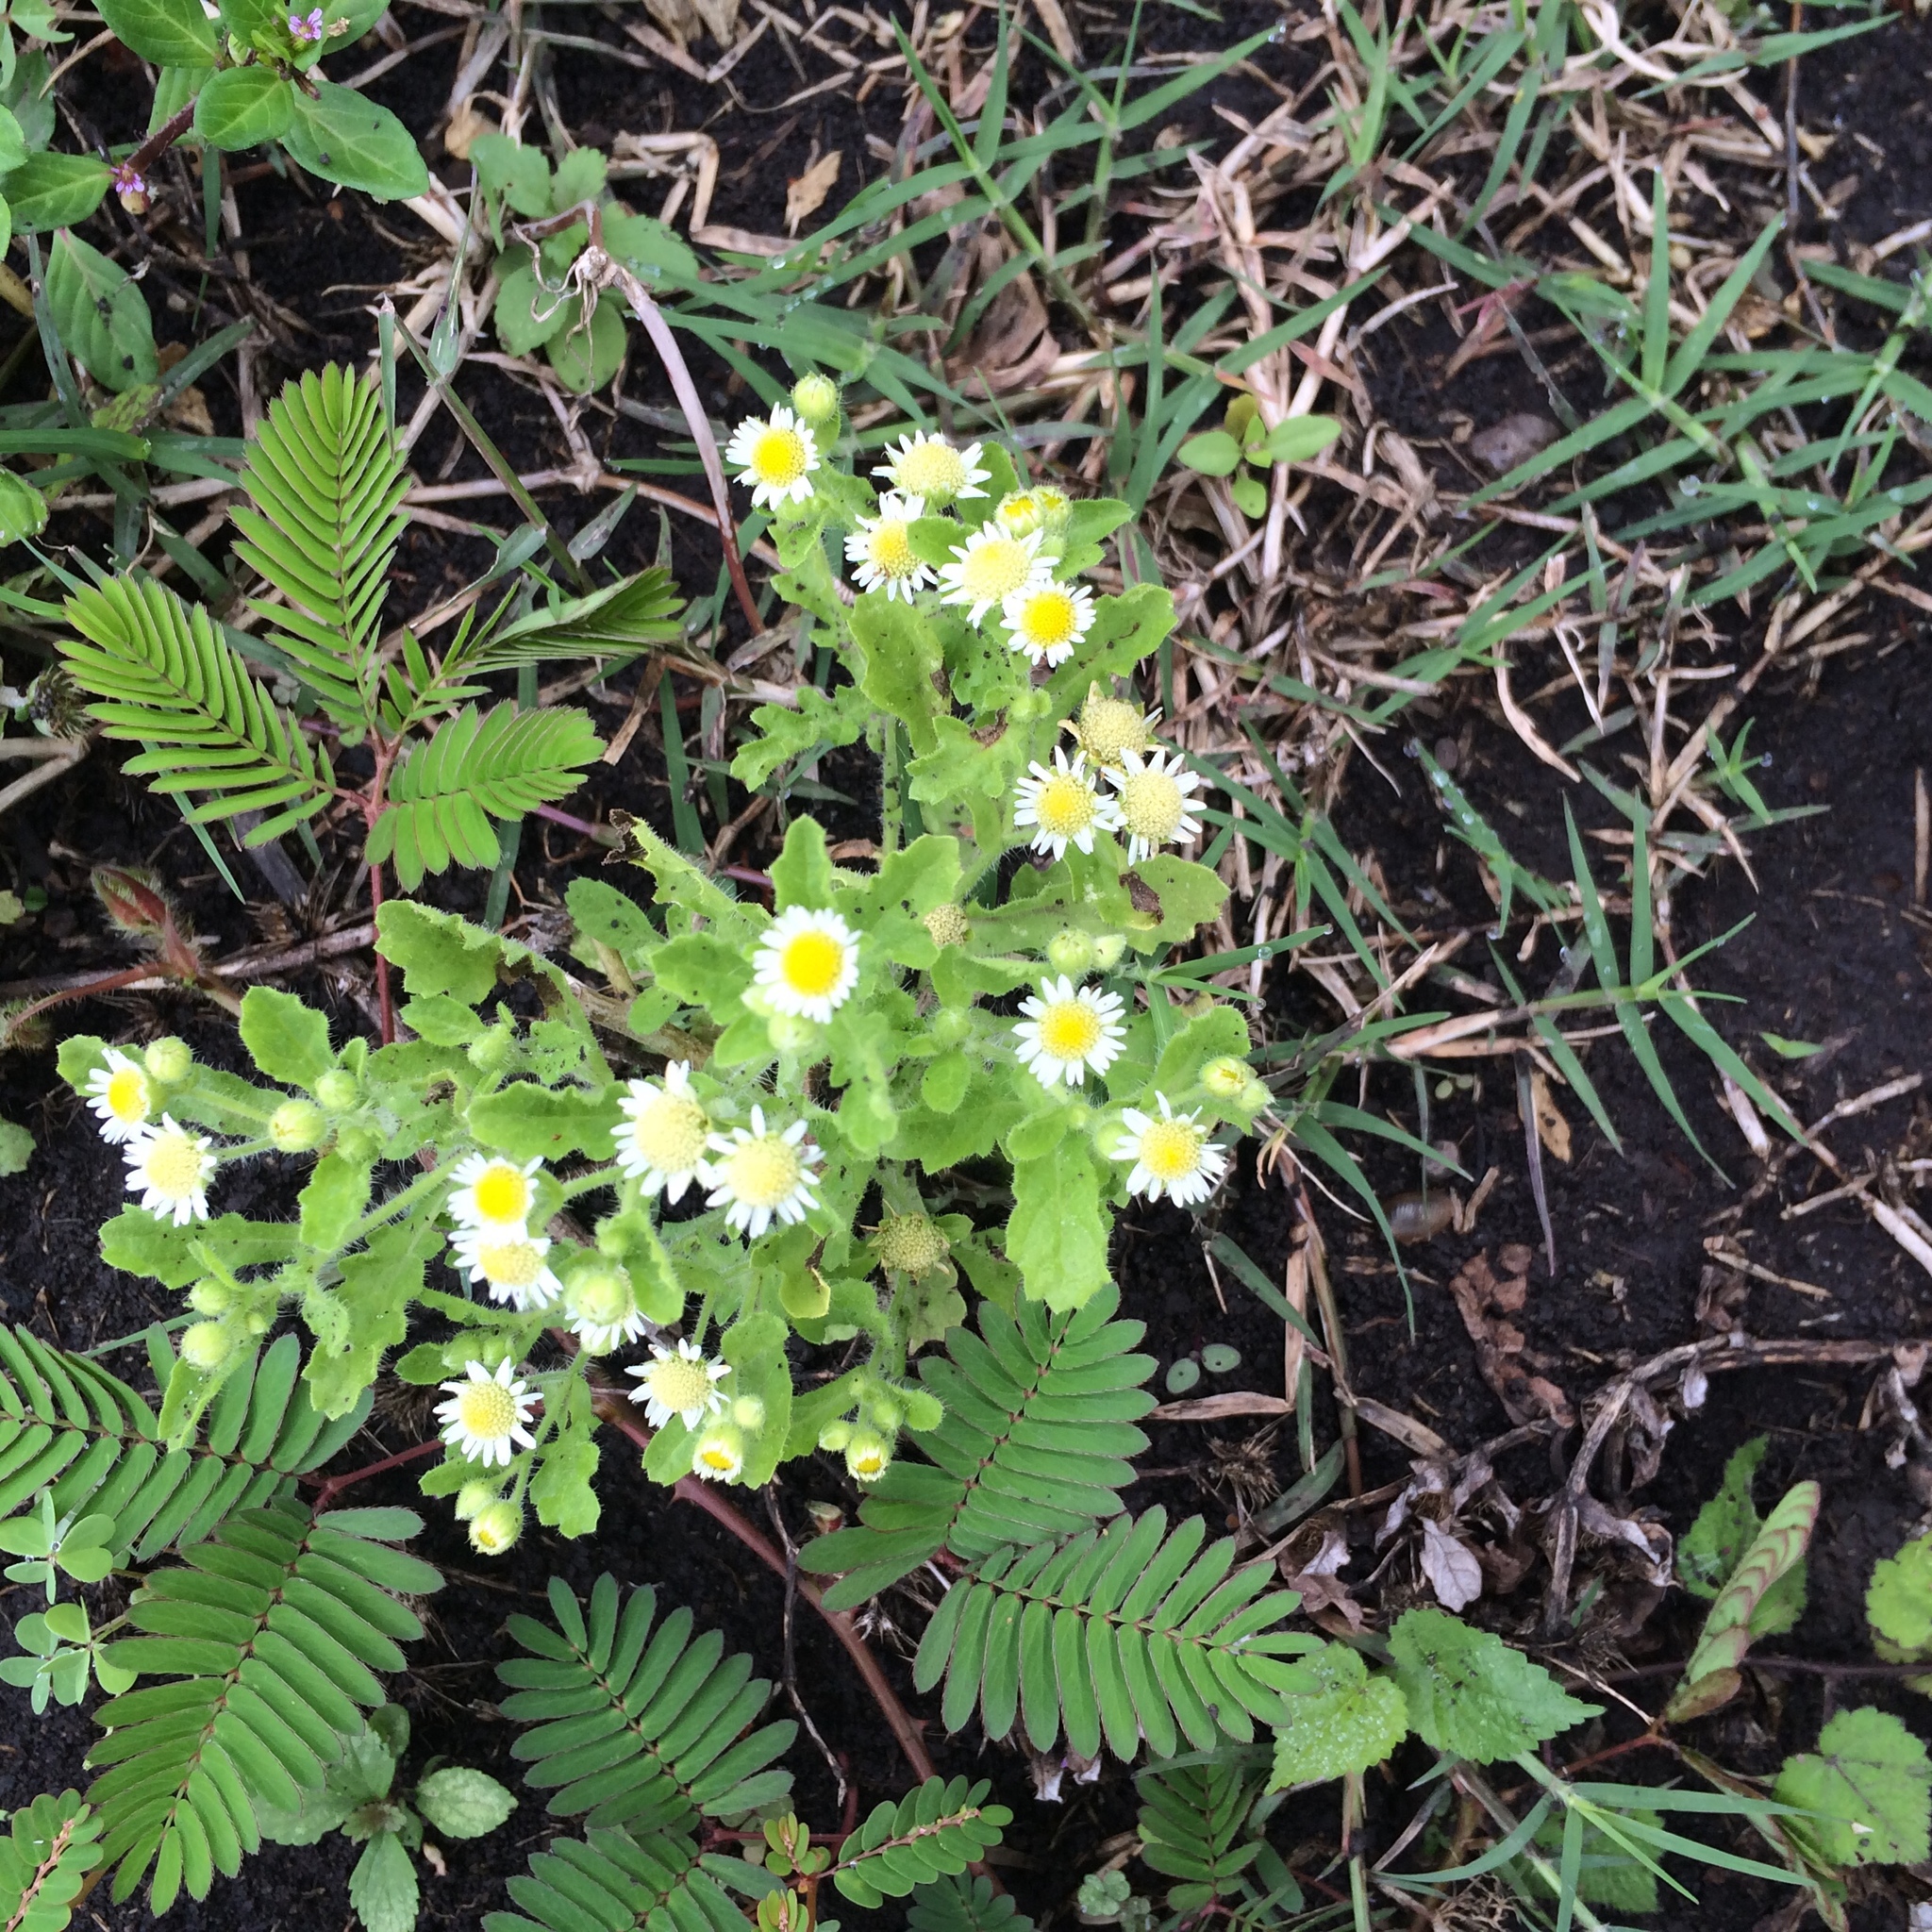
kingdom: Plantae
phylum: Tracheophyta
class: Magnoliopsida
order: Asterales
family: Asteraceae
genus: Tanacetum
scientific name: Tanacetum parthenium
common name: Feverfew
